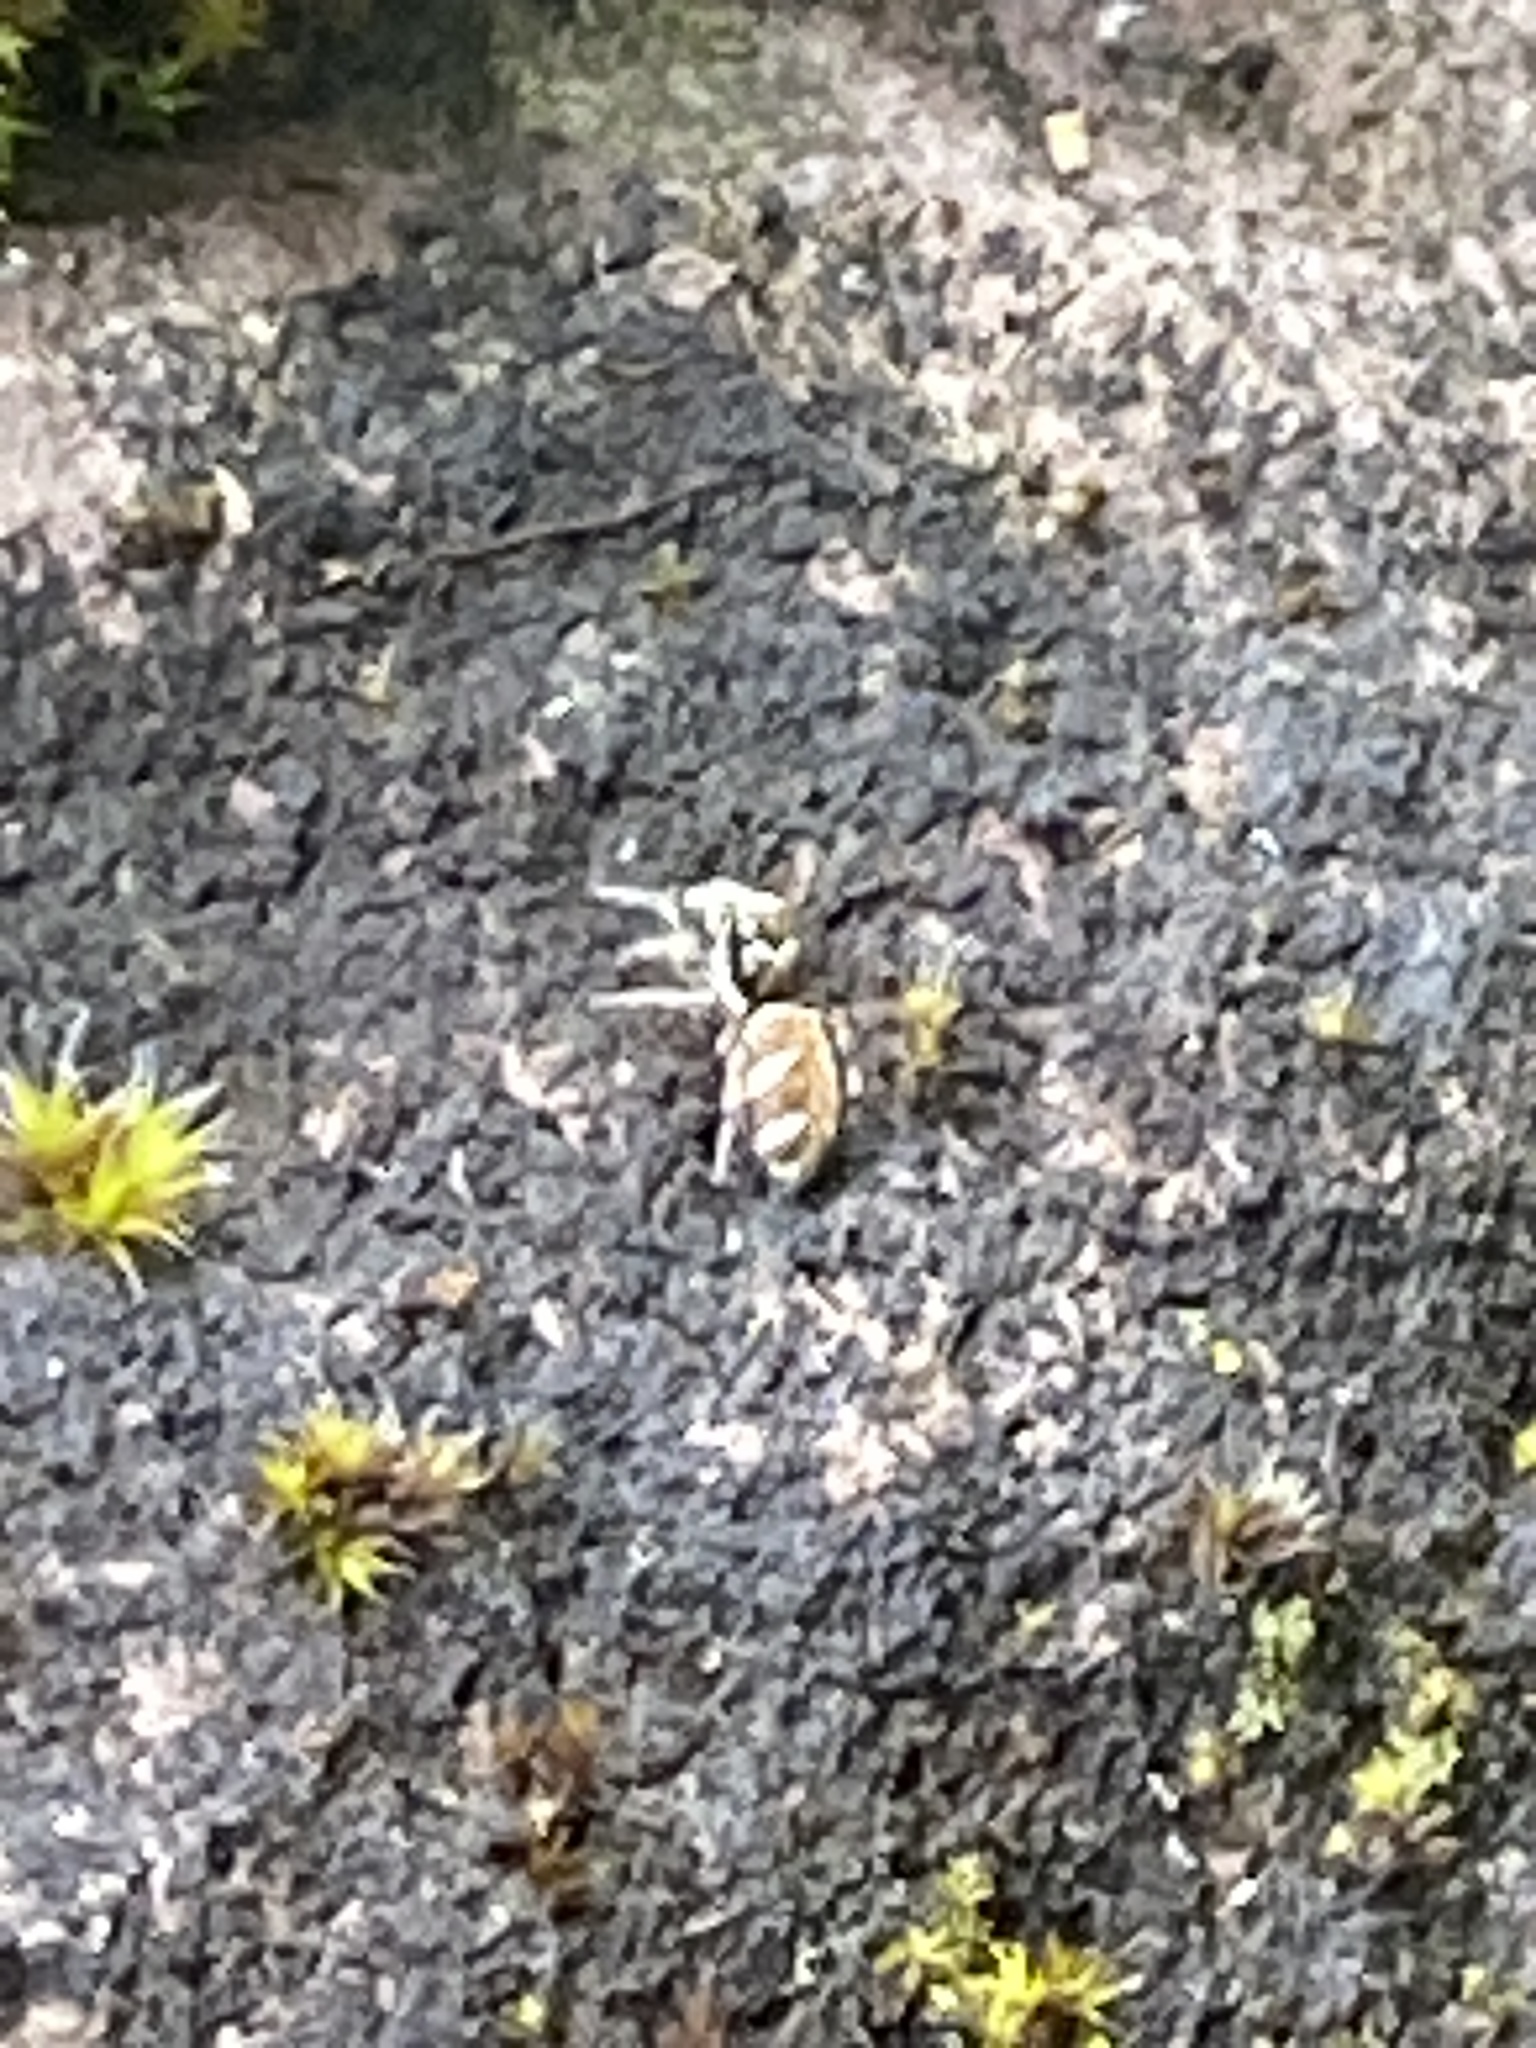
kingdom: Animalia
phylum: Arthropoda
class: Arachnida
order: Araneae
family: Salticidae
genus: Salticus
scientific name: Salticus scenicus
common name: Zebra jumper
